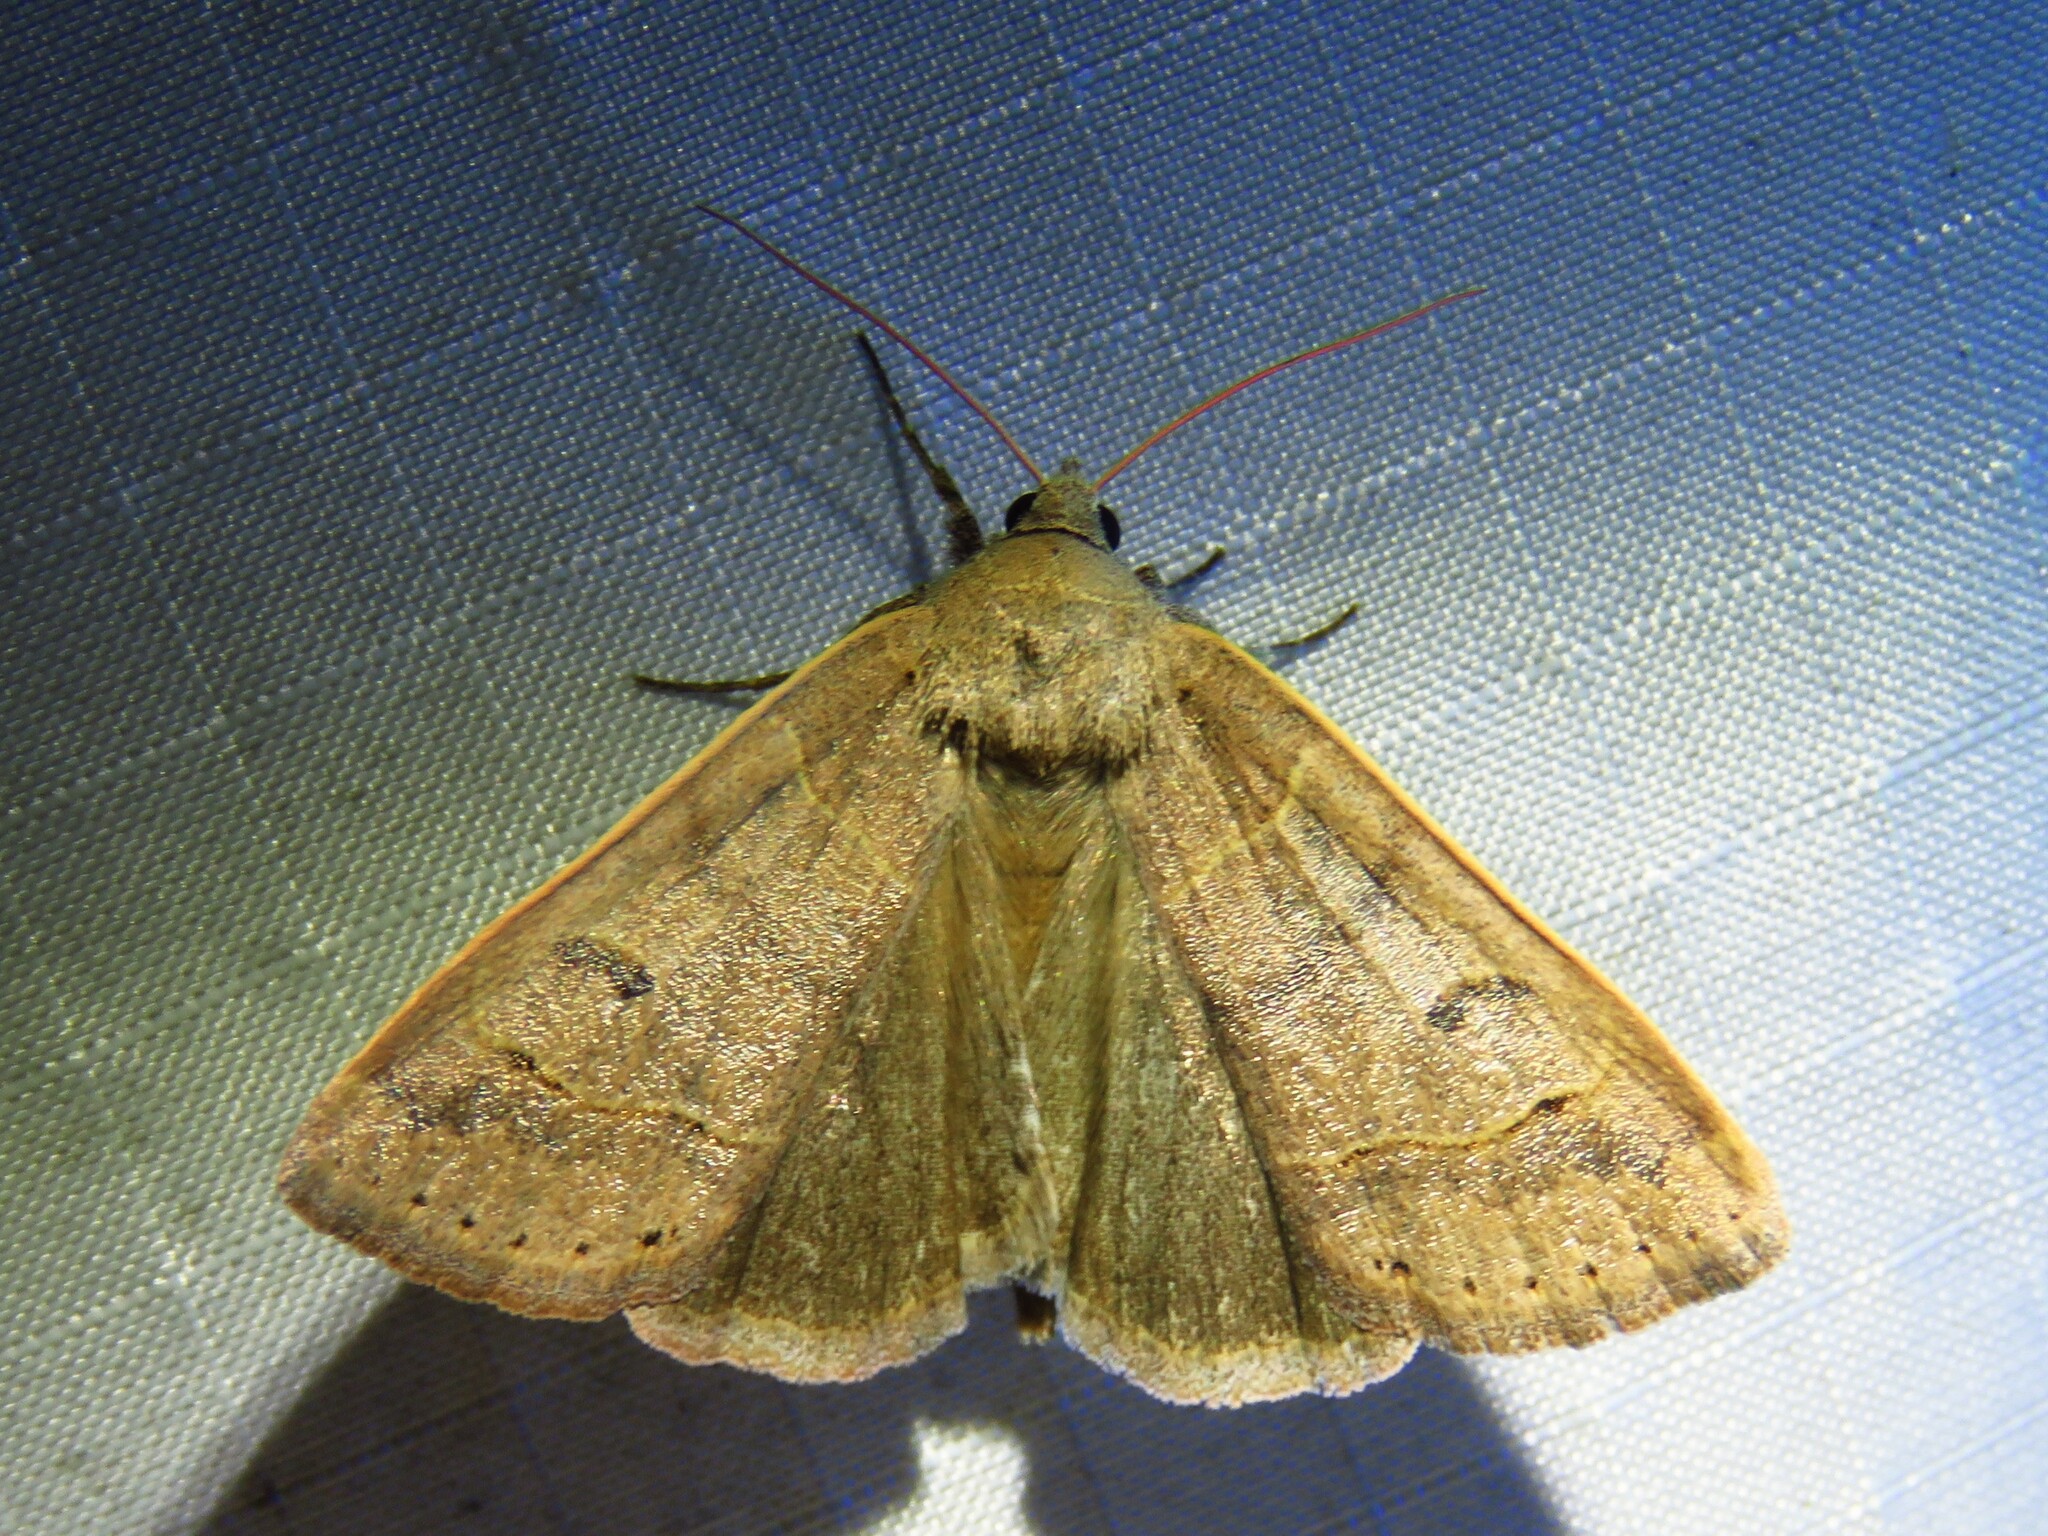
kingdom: Animalia
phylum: Arthropoda
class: Insecta
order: Lepidoptera
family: Erebidae
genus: Phoberia
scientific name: Phoberia atomaris
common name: Common oak moth
